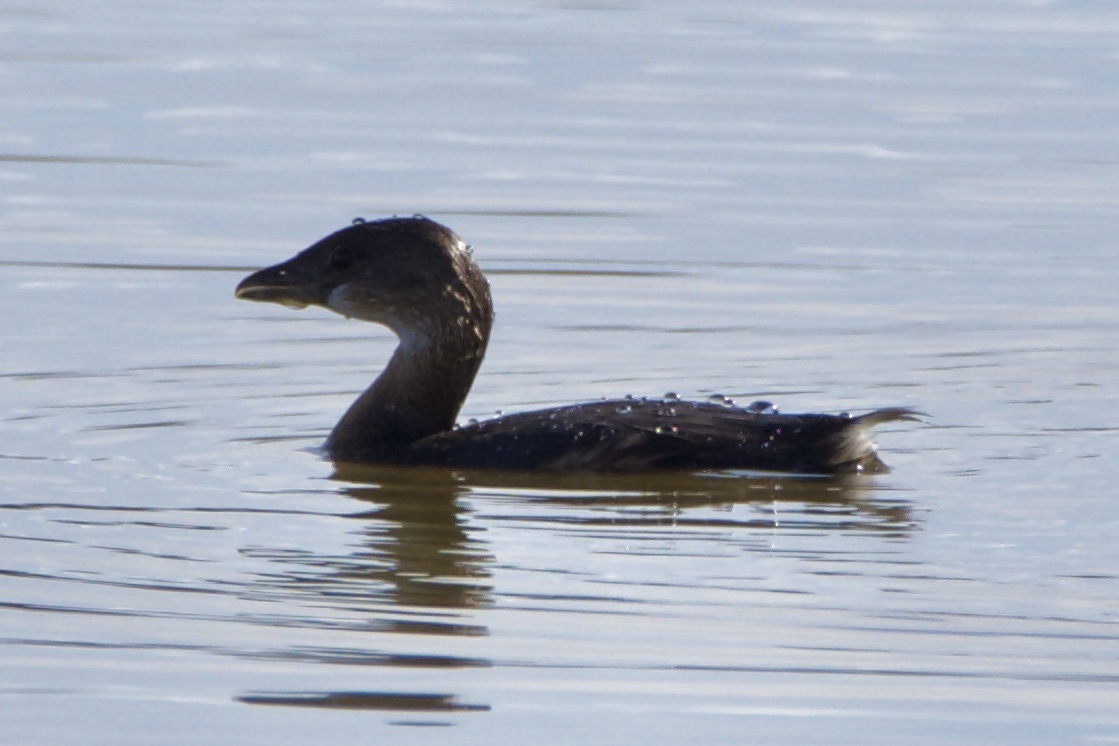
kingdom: Animalia
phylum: Chordata
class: Aves
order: Podicipediformes
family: Podicipedidae
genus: Podilymbus
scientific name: Podilymbus podiceps
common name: Pied-billed grebe
